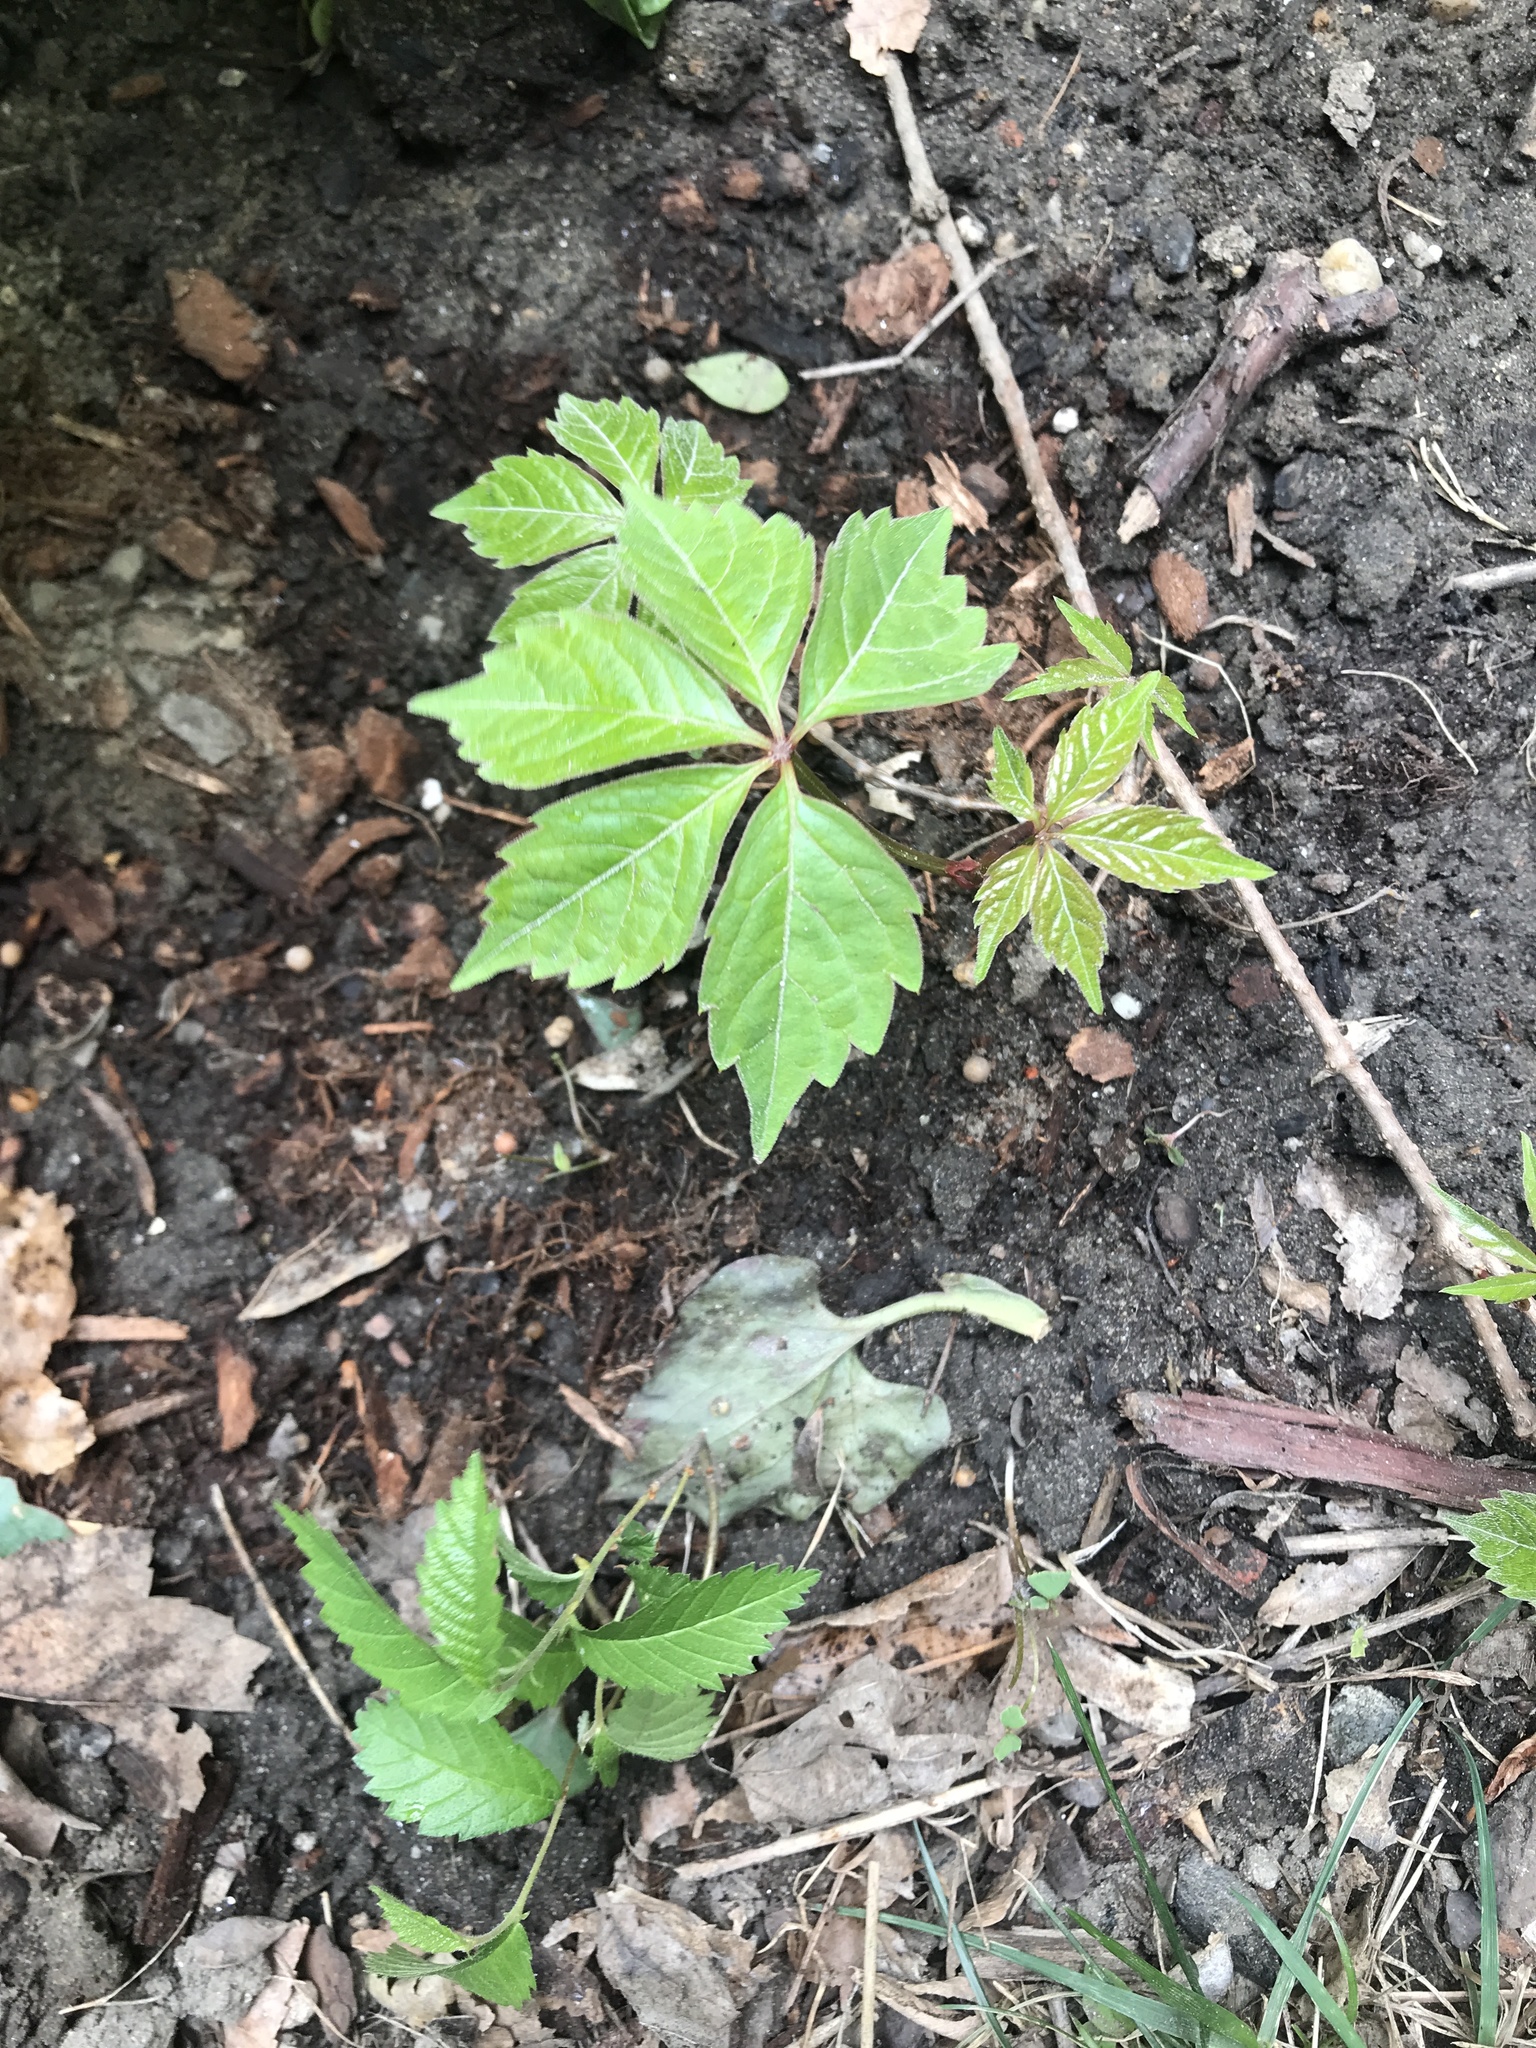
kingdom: Plantae
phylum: Tracheophyta
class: Magnoliopsida
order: Vitales
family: Vitaceae
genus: Parthenocissus
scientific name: Parthenocissus quinquefolia
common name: Virginia-creeper
